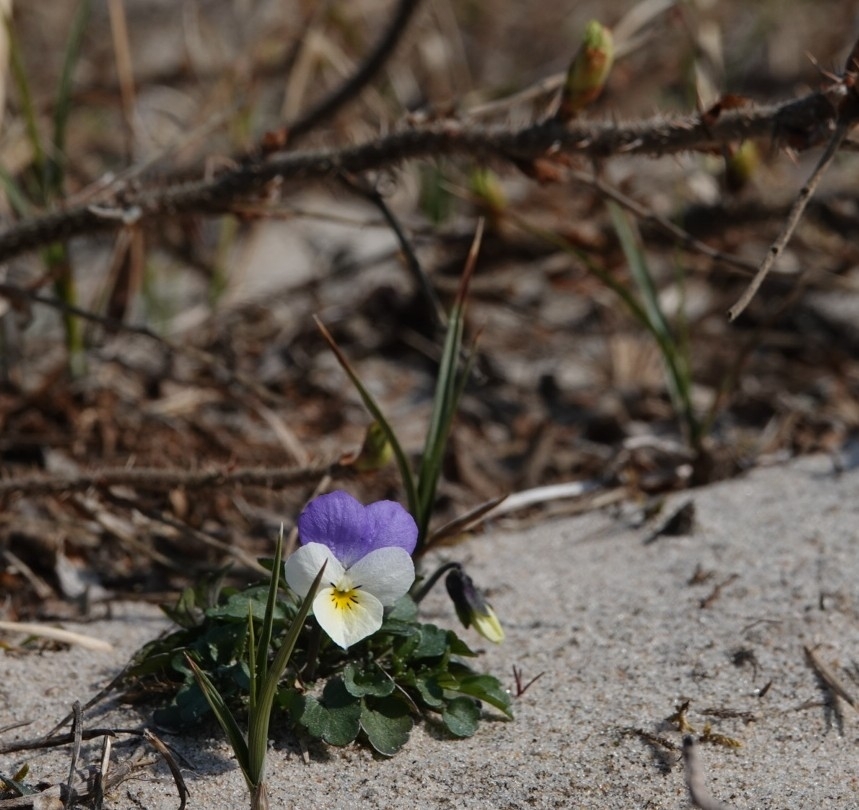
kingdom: Plantae
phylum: Tracheophyta
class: Magnoliopsida
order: Malpighiales
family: Violaceae
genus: Viola
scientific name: Viola tricolor
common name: Pansy
